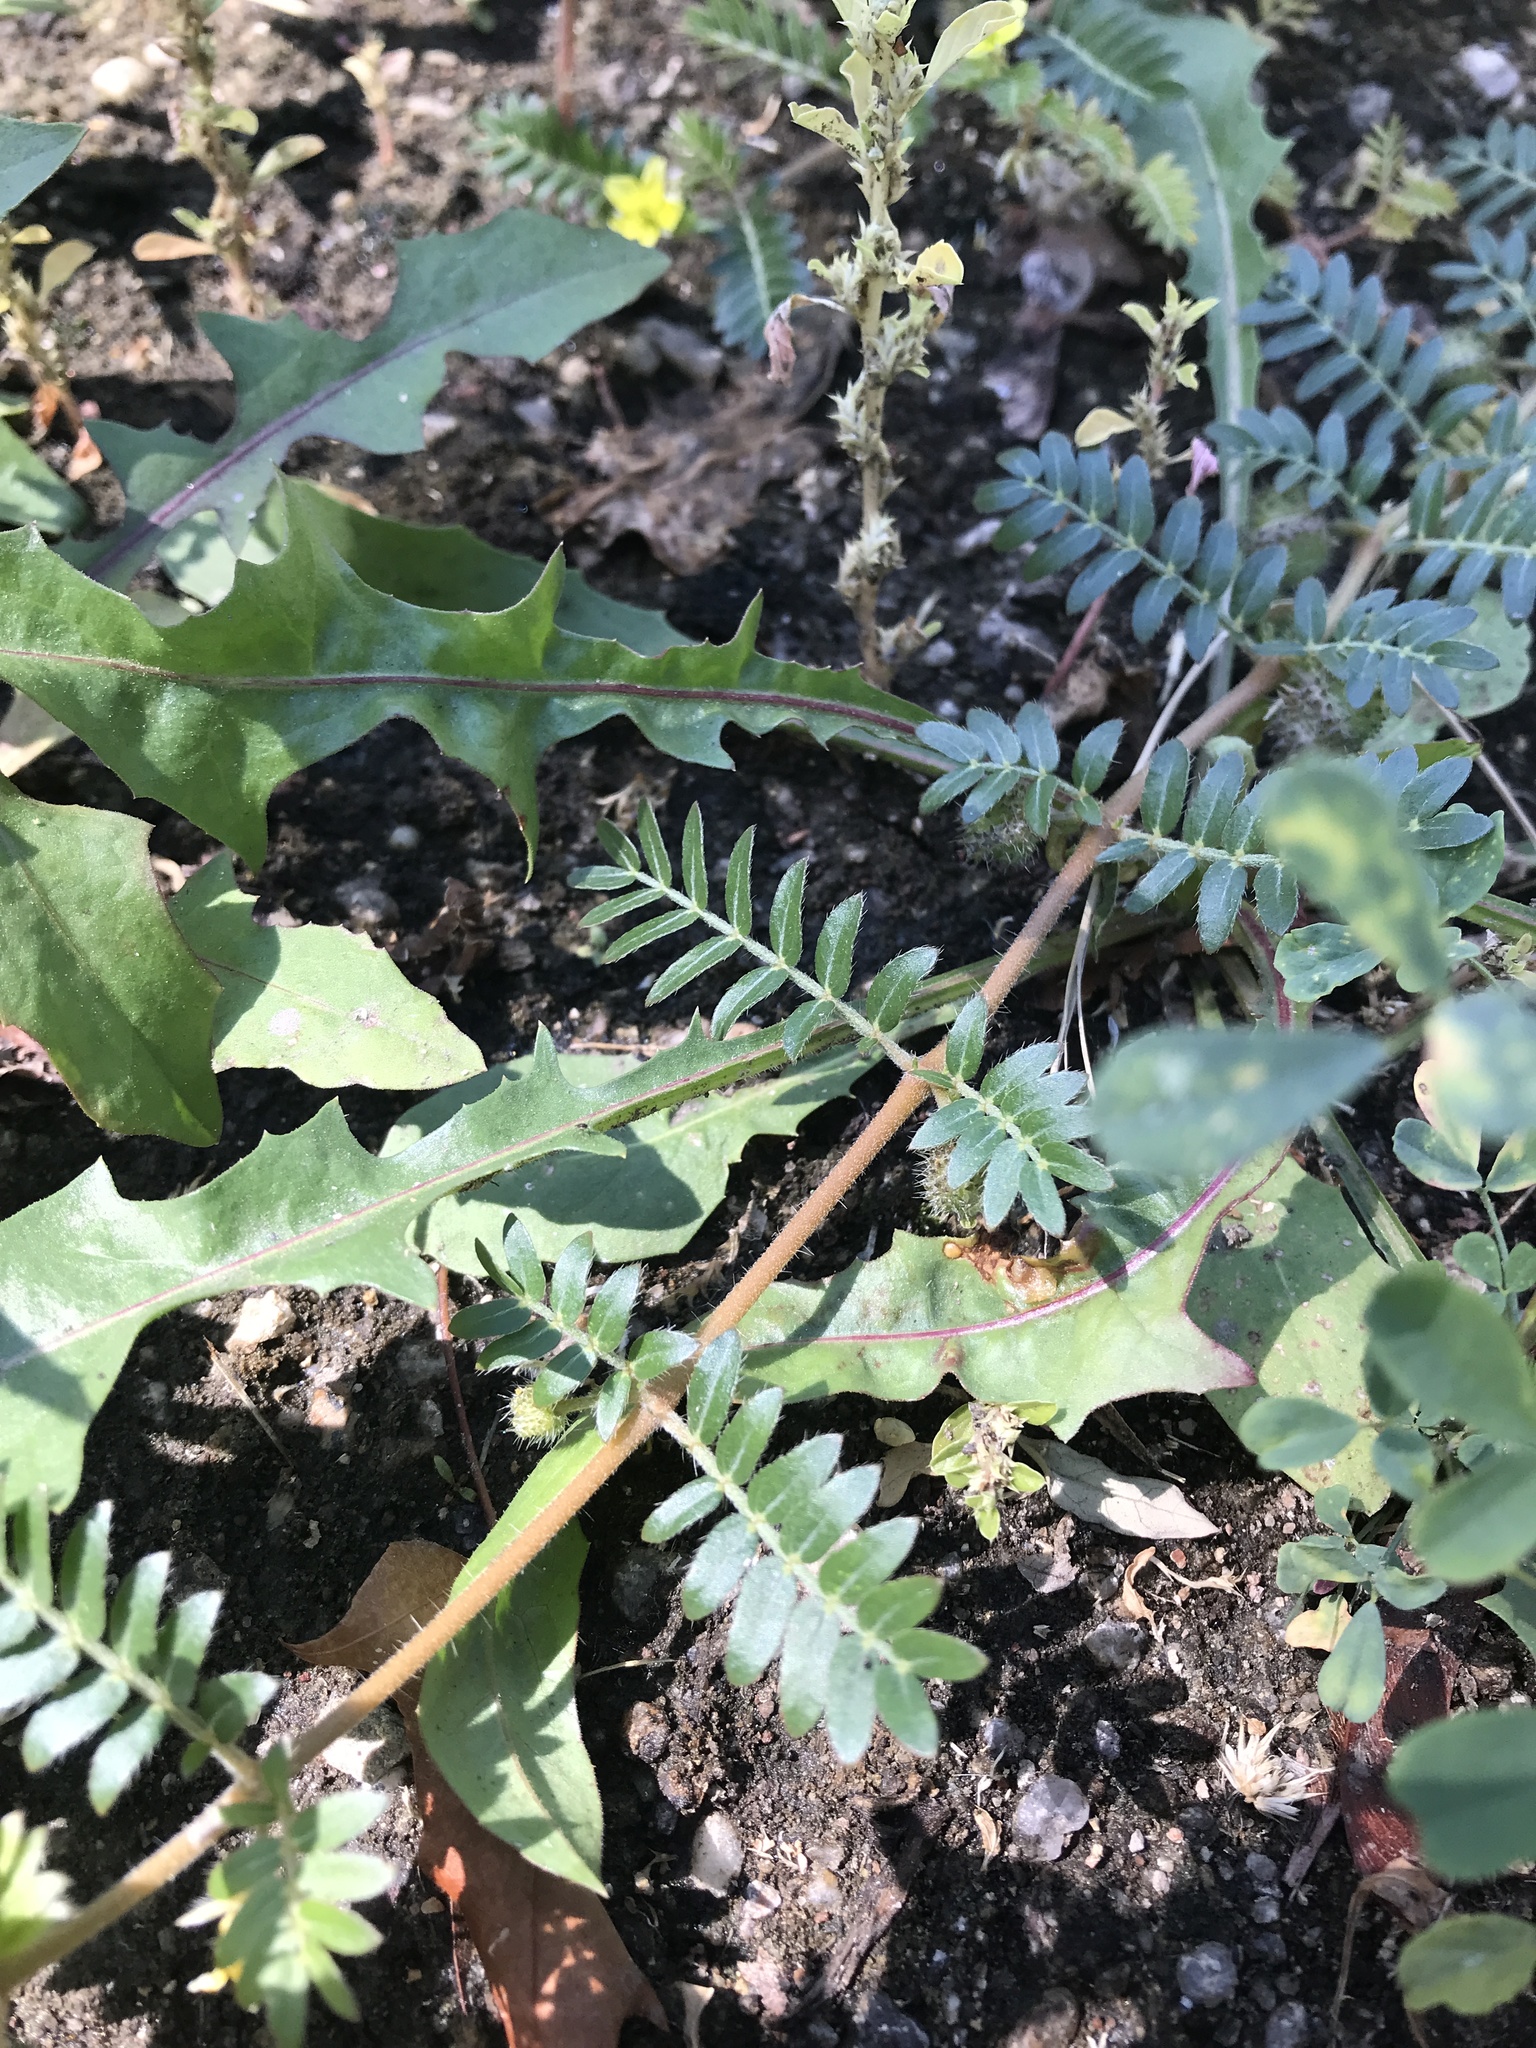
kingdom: Plantae
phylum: Tracheophyta
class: Magnoliopsida
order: Zygophyllales
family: Zygophyllaceae
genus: Tribulus
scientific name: Tribulus terrestris
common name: Puncturevine
